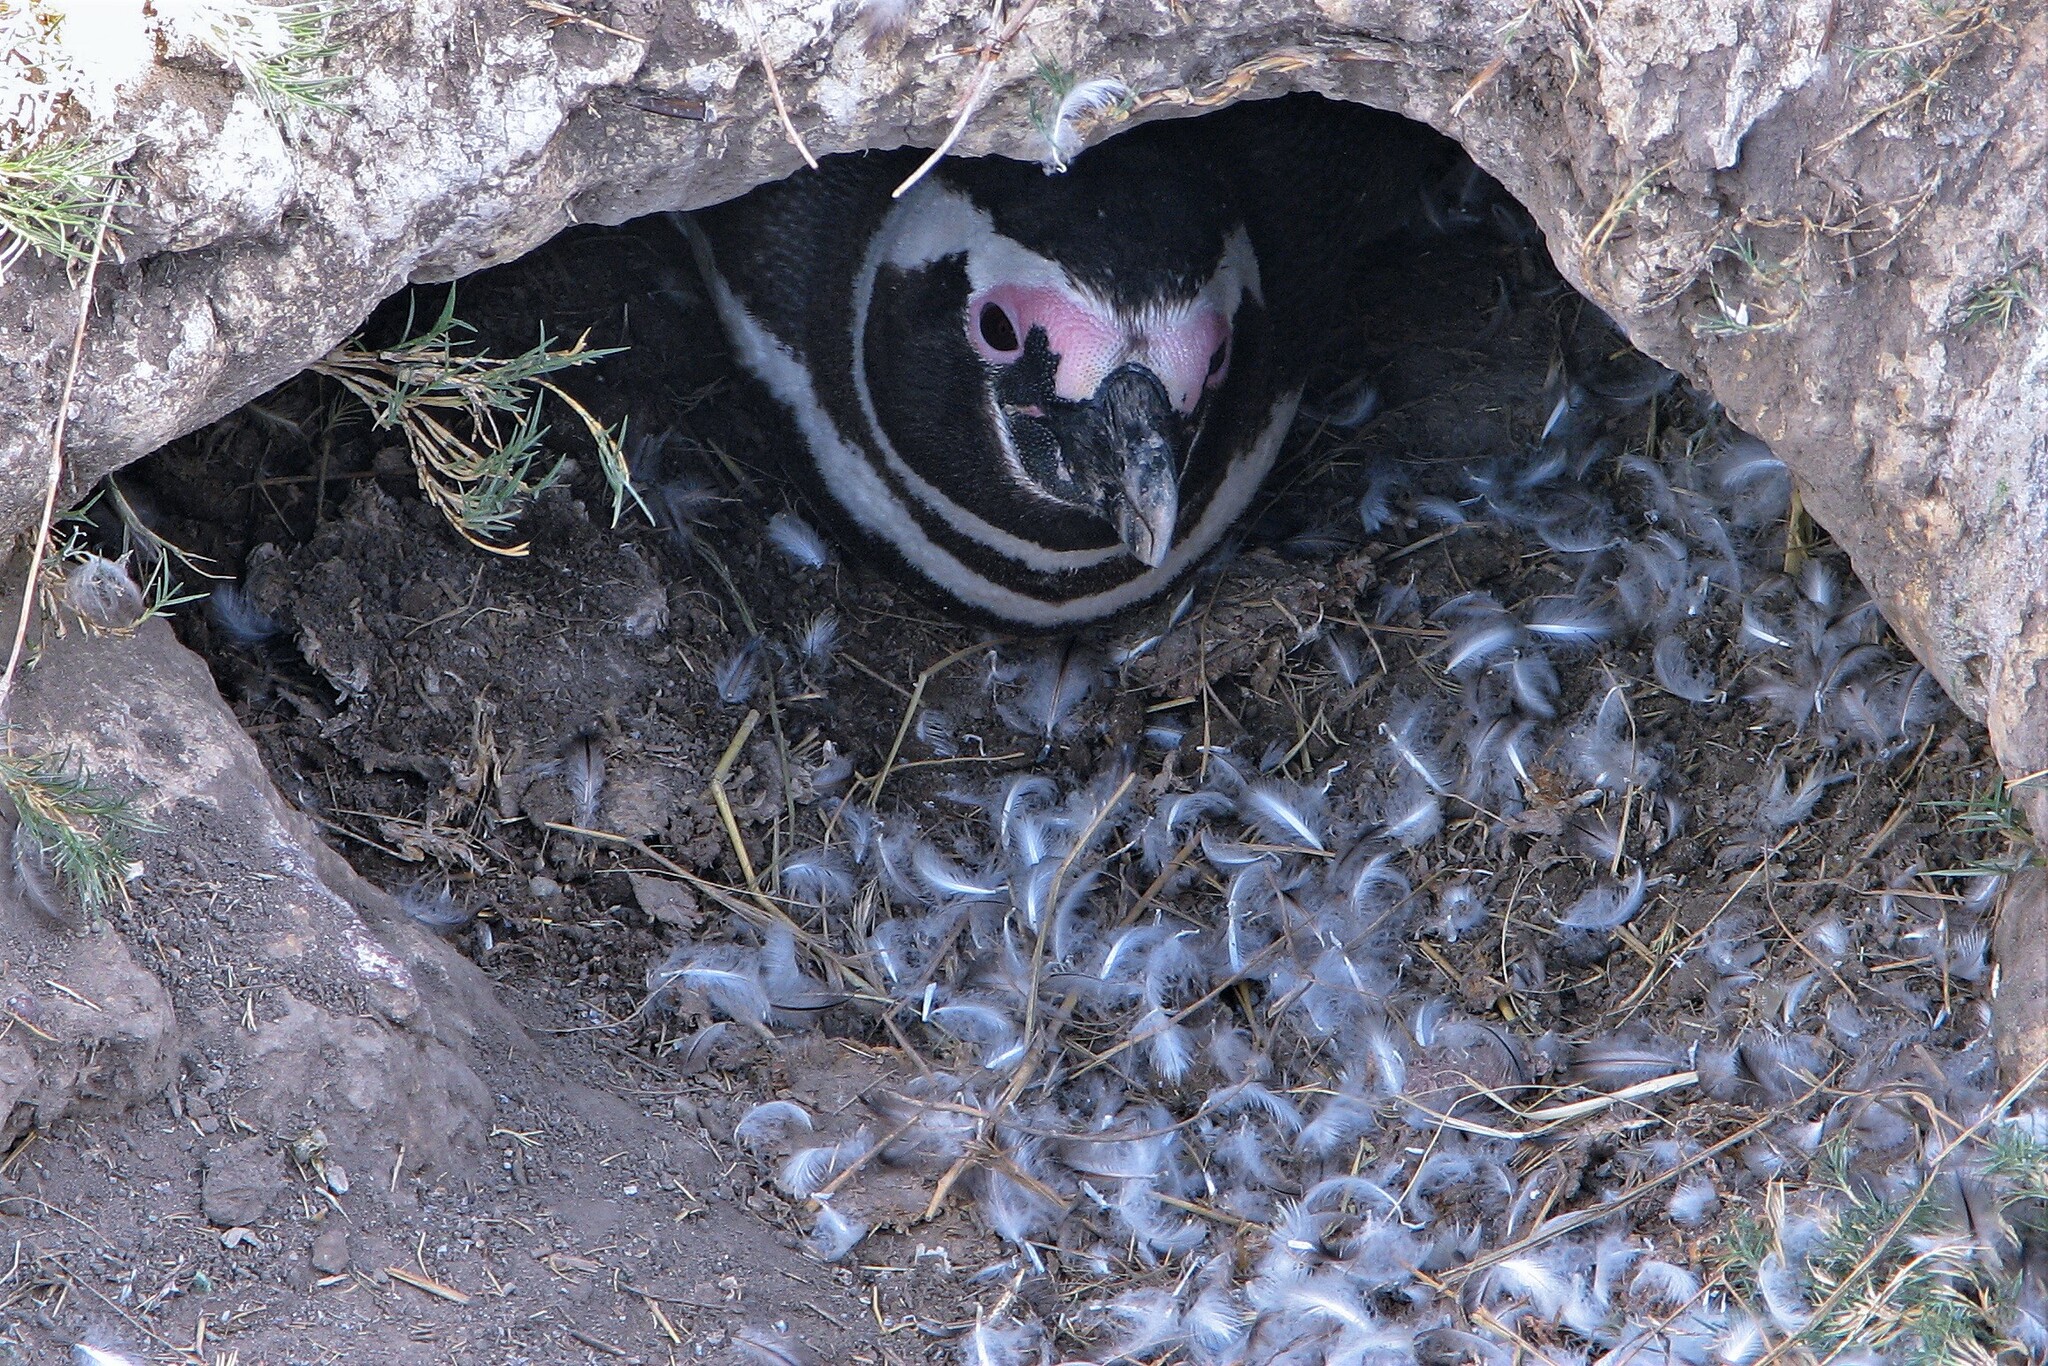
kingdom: Animalia
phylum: Chordata
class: Aves
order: Sphenisciformes
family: Spheniscidae
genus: Spheniscus
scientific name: Spheniscus magellanicus
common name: Magellanic penguin
